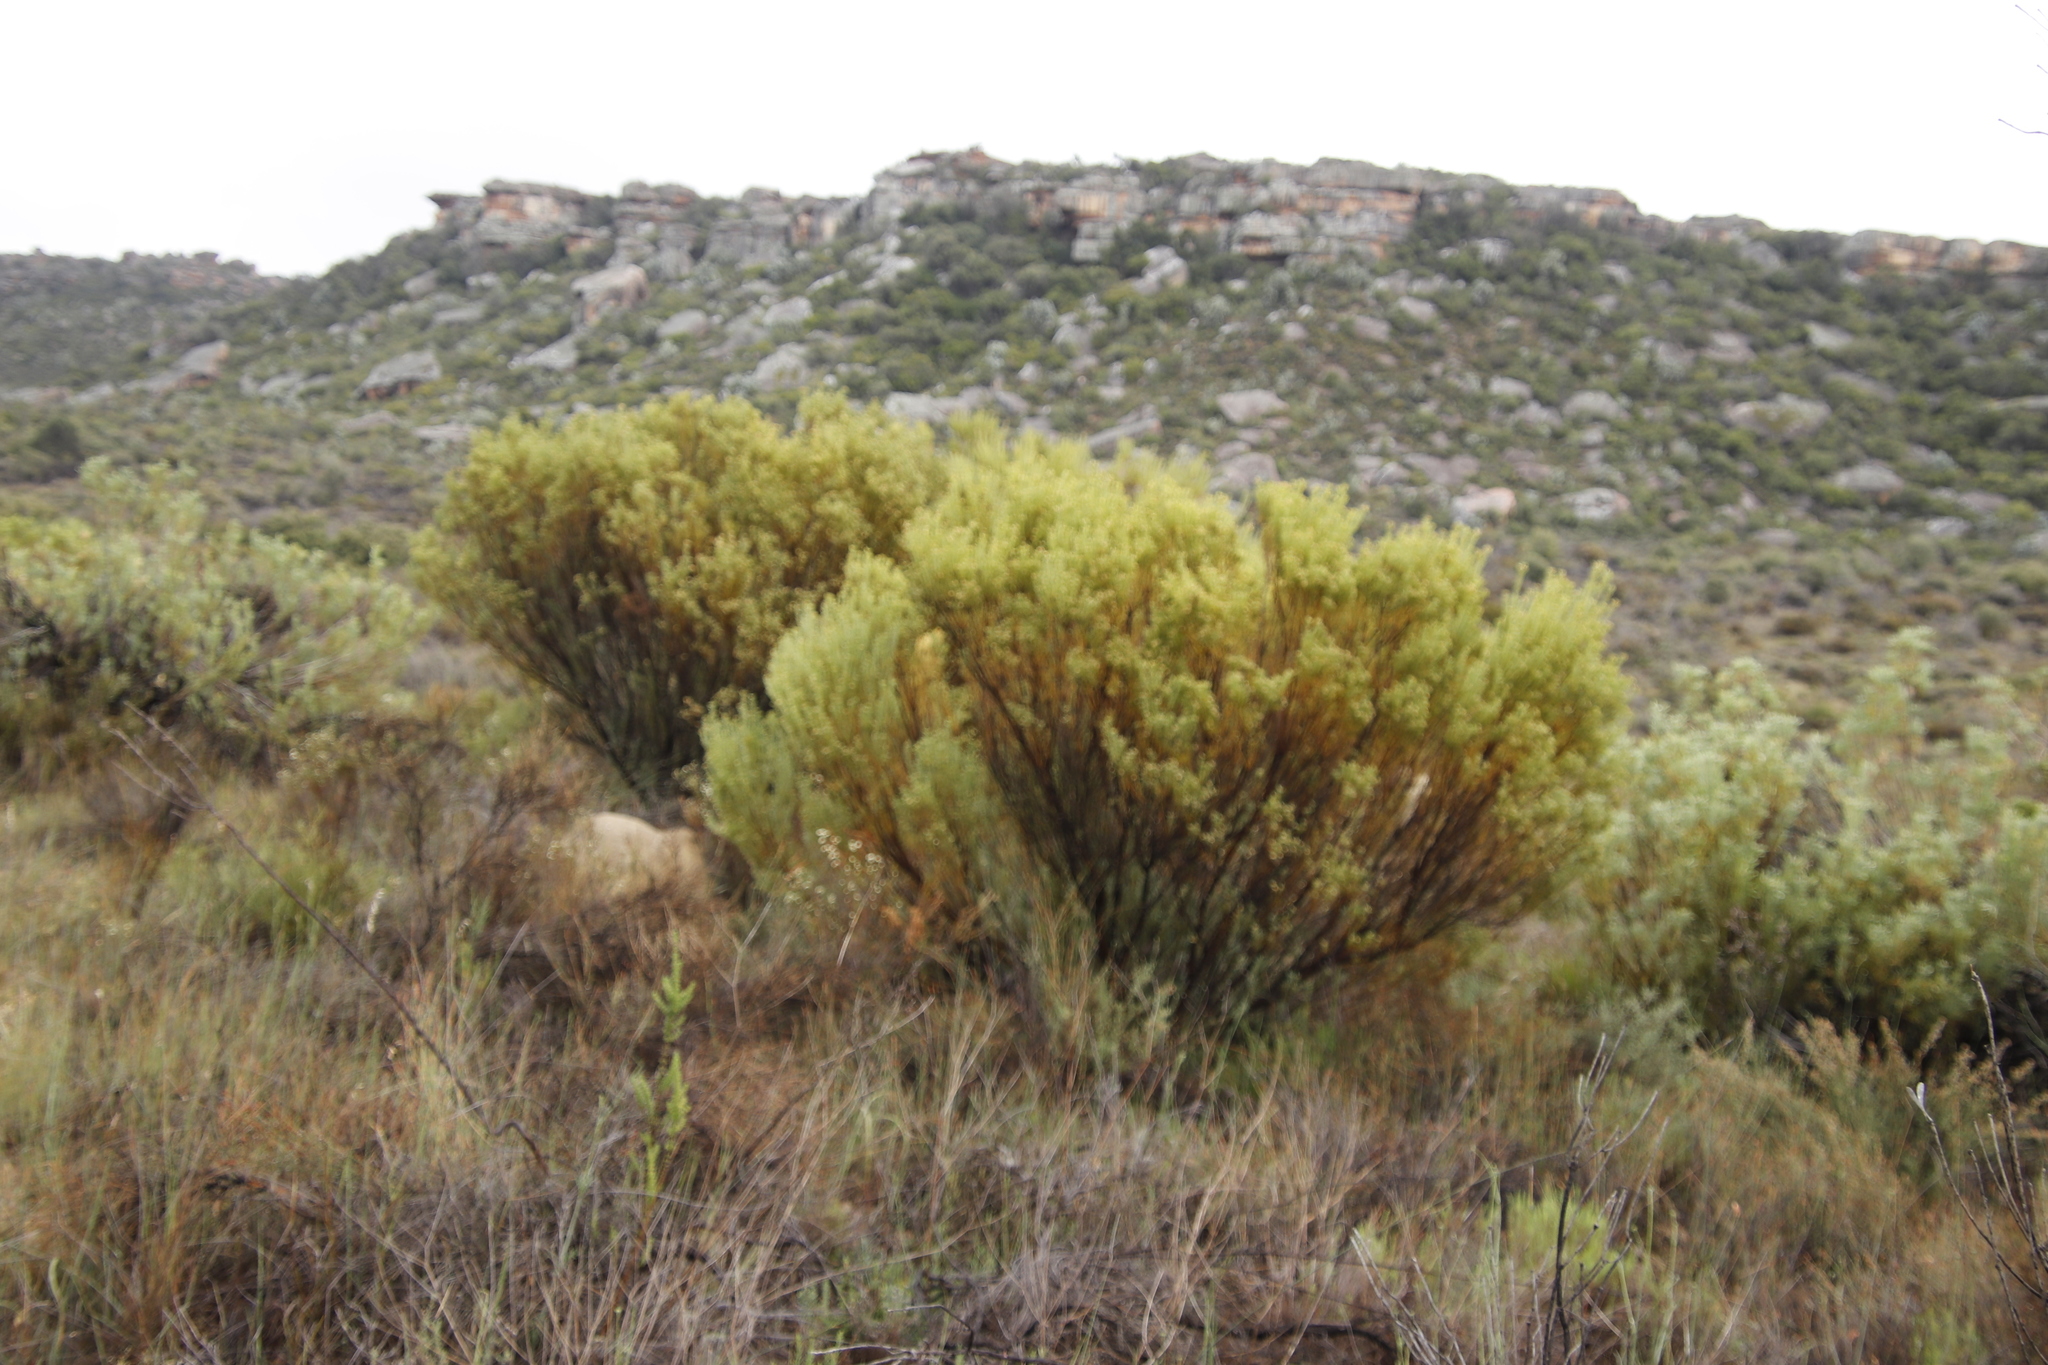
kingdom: Plantae
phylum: Tracheophyta
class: Magnoliopsida
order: Proteales
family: Proteaceae
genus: Leucadendron
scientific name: Leucadendron pubescens
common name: Grey conebush
